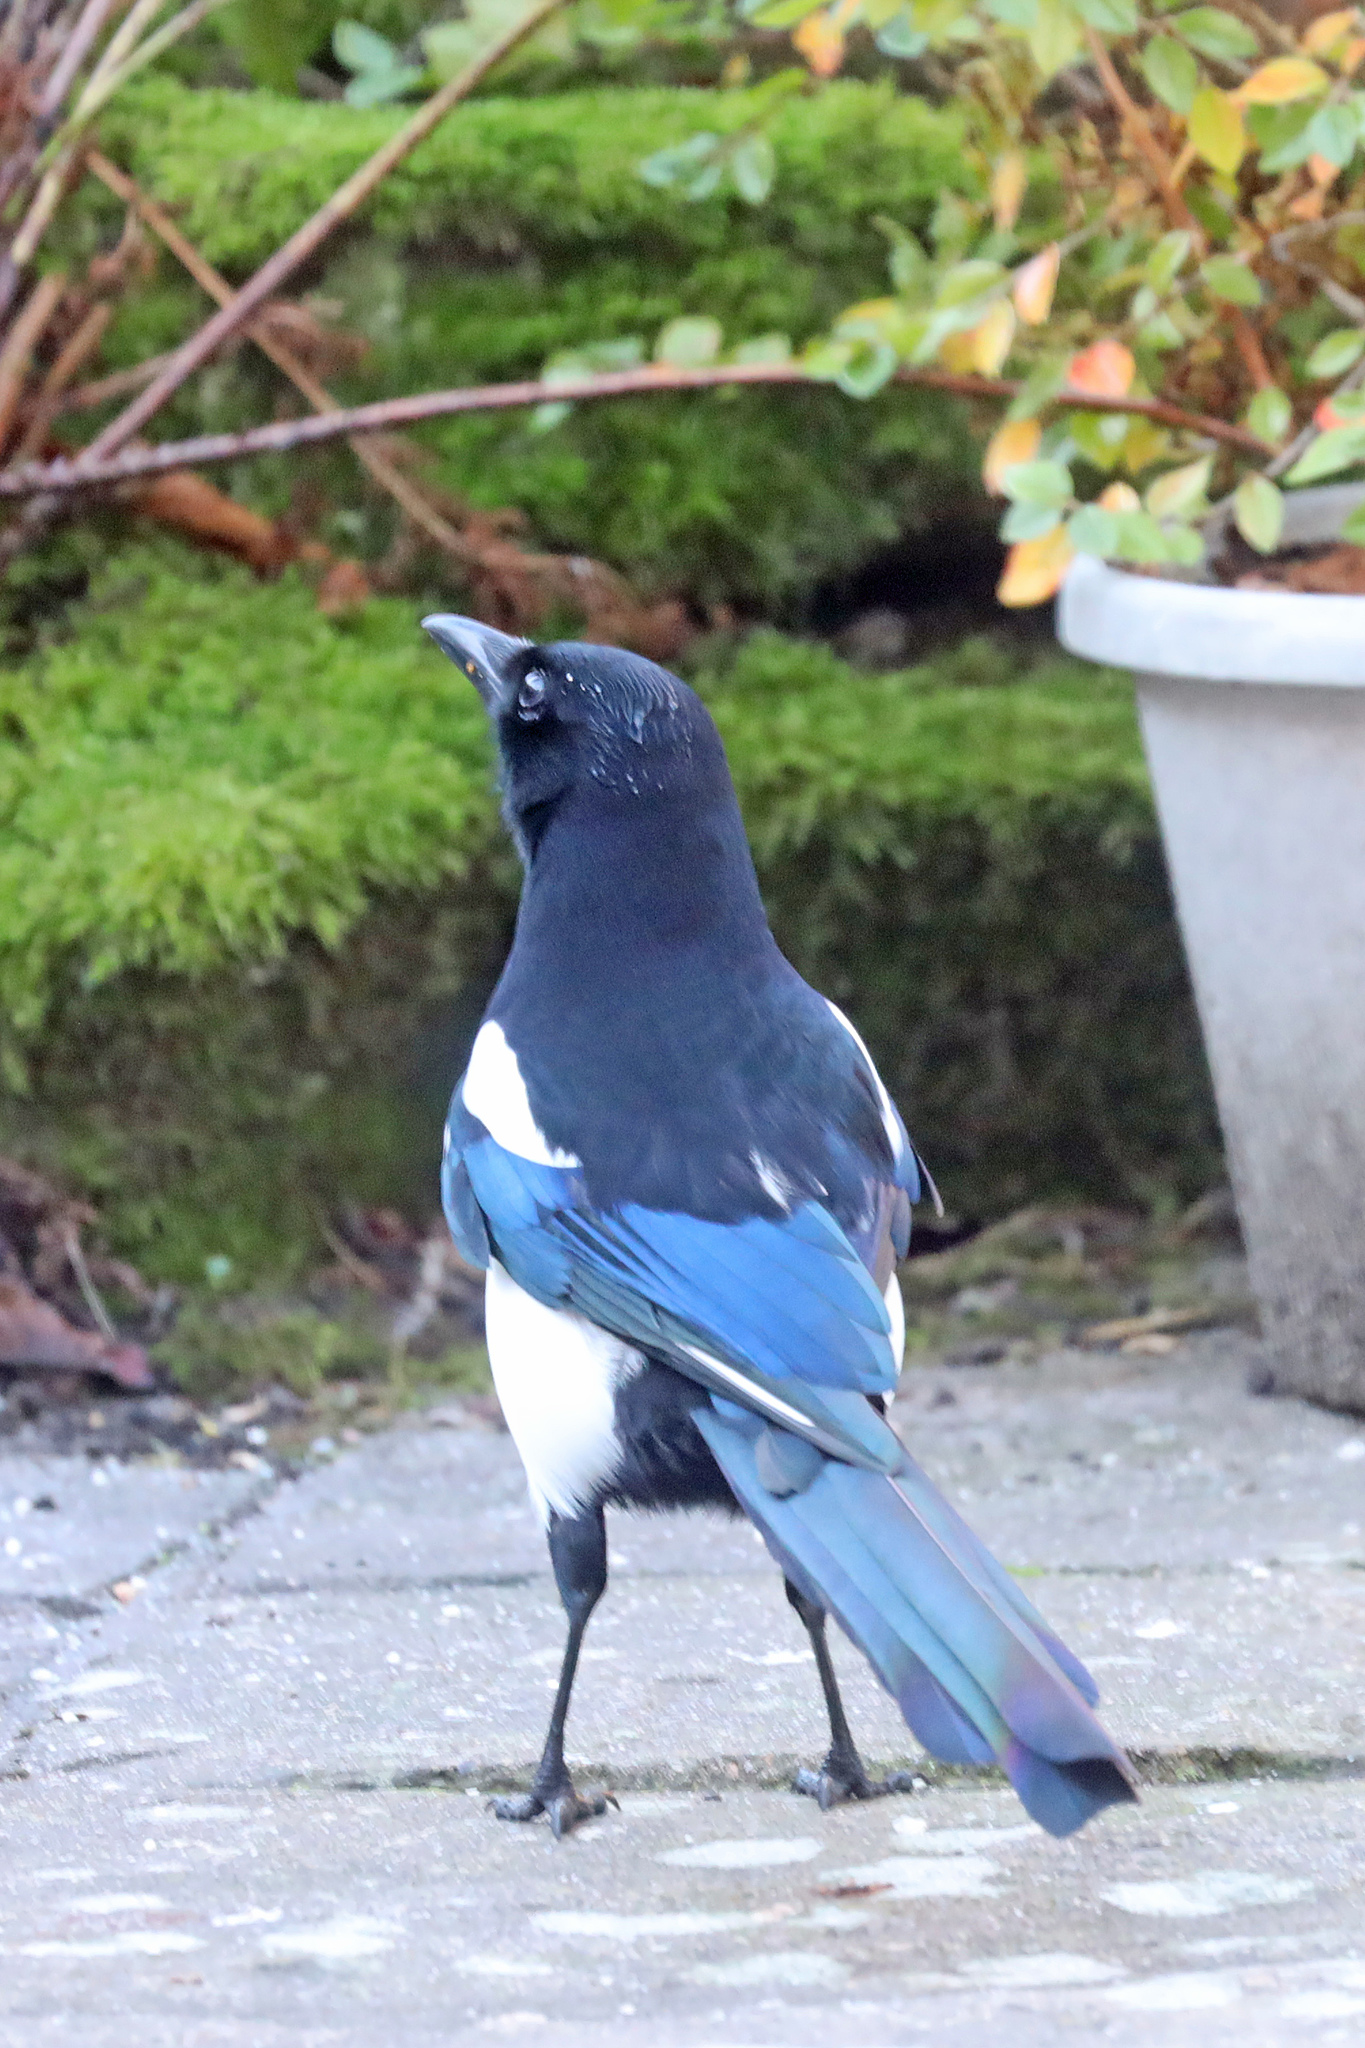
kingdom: Animalia
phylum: Chordata
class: Aves
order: Passeriformes
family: Corvidae
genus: Pica
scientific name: Pica pica
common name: Eurasian magpie
